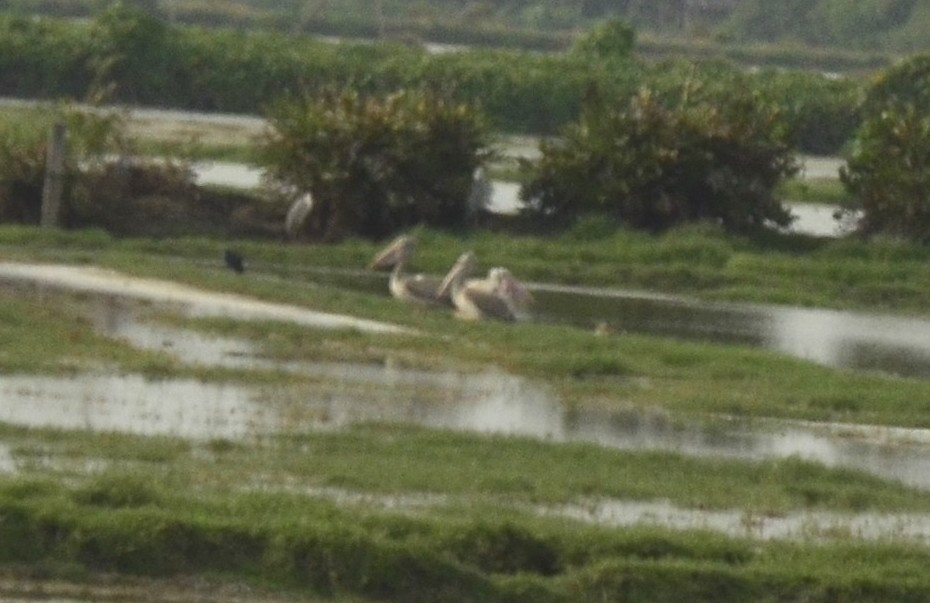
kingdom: Animalia
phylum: Chordata
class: Aves
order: Pelecaniformes
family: Pelecanidae
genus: Pelecanus
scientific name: Pelecanus philippensis
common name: Spot-billed pelican
